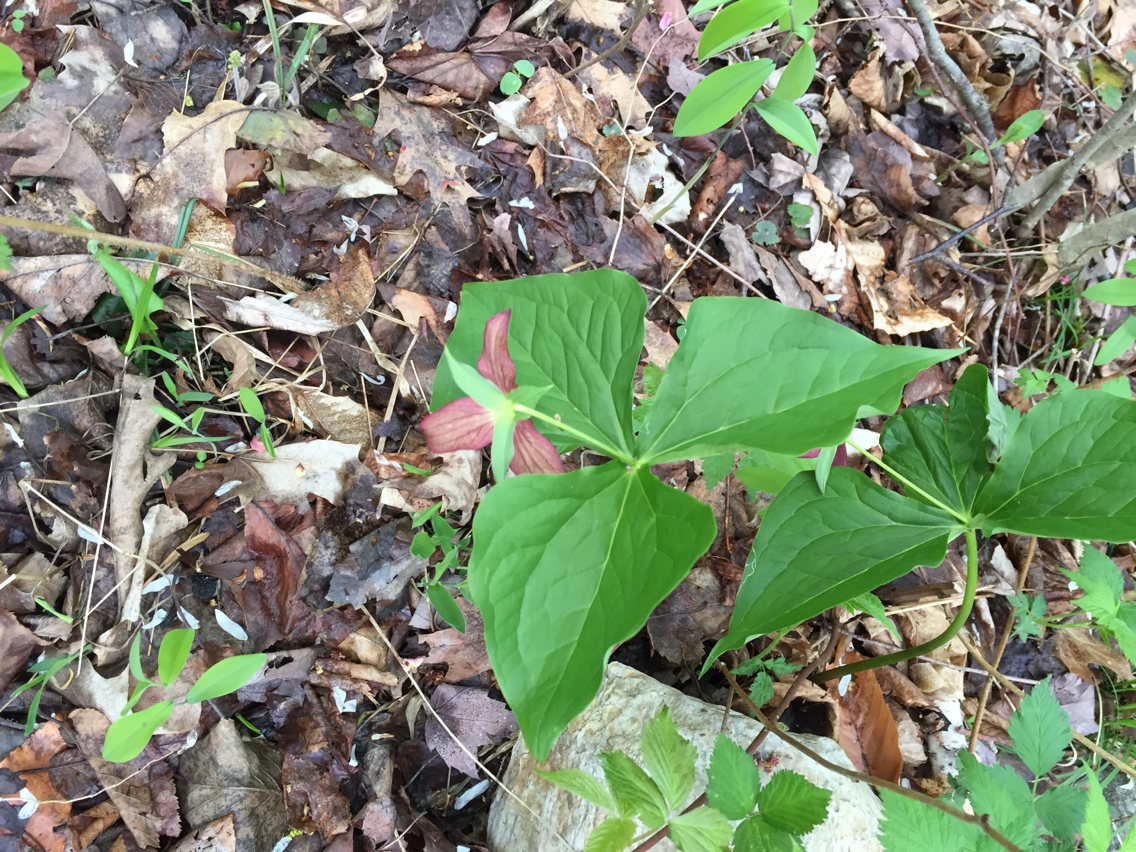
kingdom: Plantae
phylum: Tracheophyta
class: Liliopsida
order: Liliales
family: Melanthiaceae
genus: Trillium
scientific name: Trillium erectum
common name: Purple trillium
